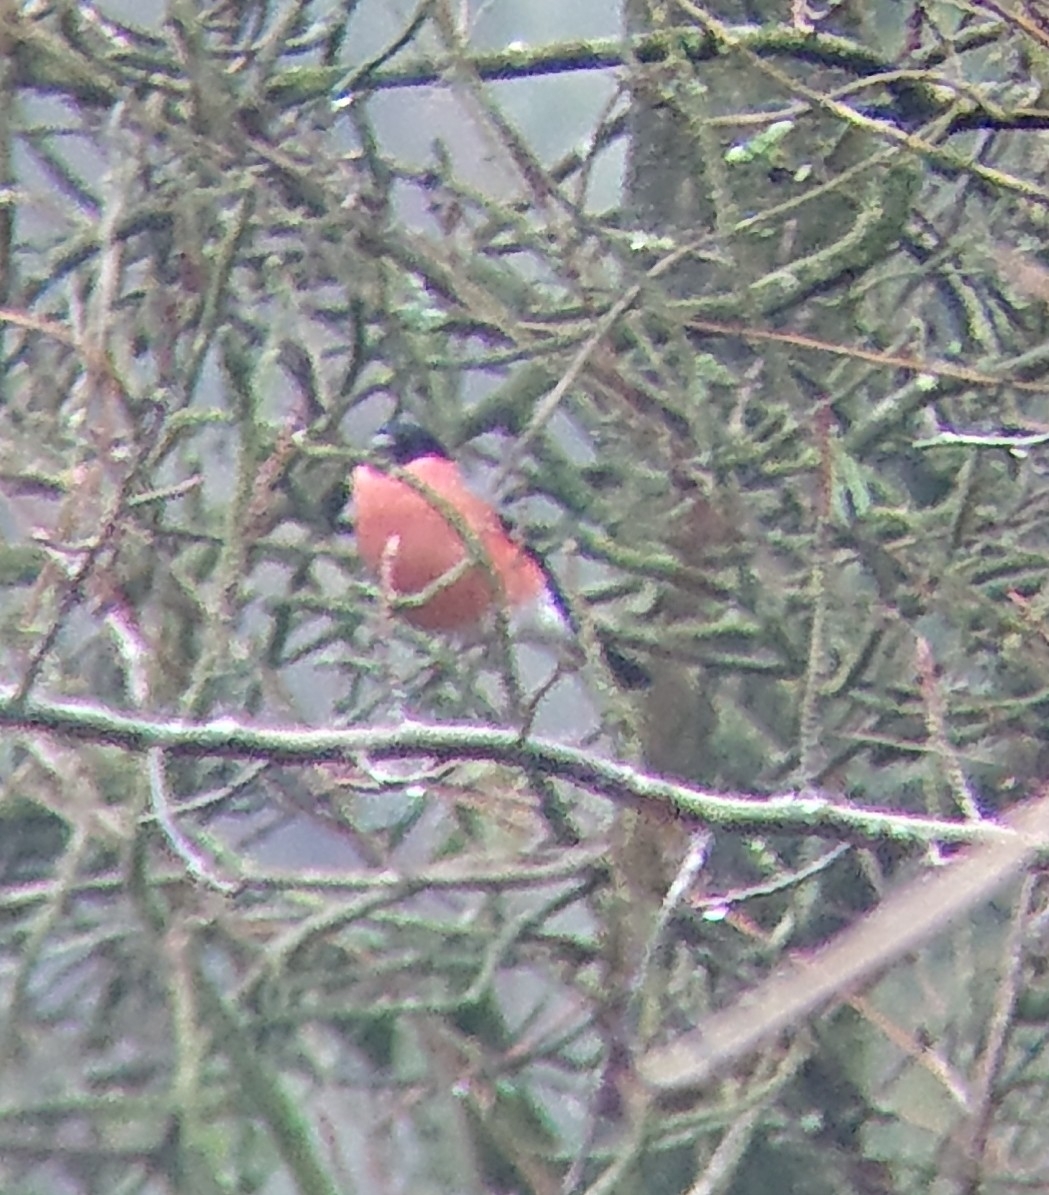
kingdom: Animalia
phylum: Chordata
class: Aves
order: Passeriformes
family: Fringillidae
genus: Pyrrhula
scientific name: Pyrrhula pyrrhula
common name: Eurasian bullfinch
